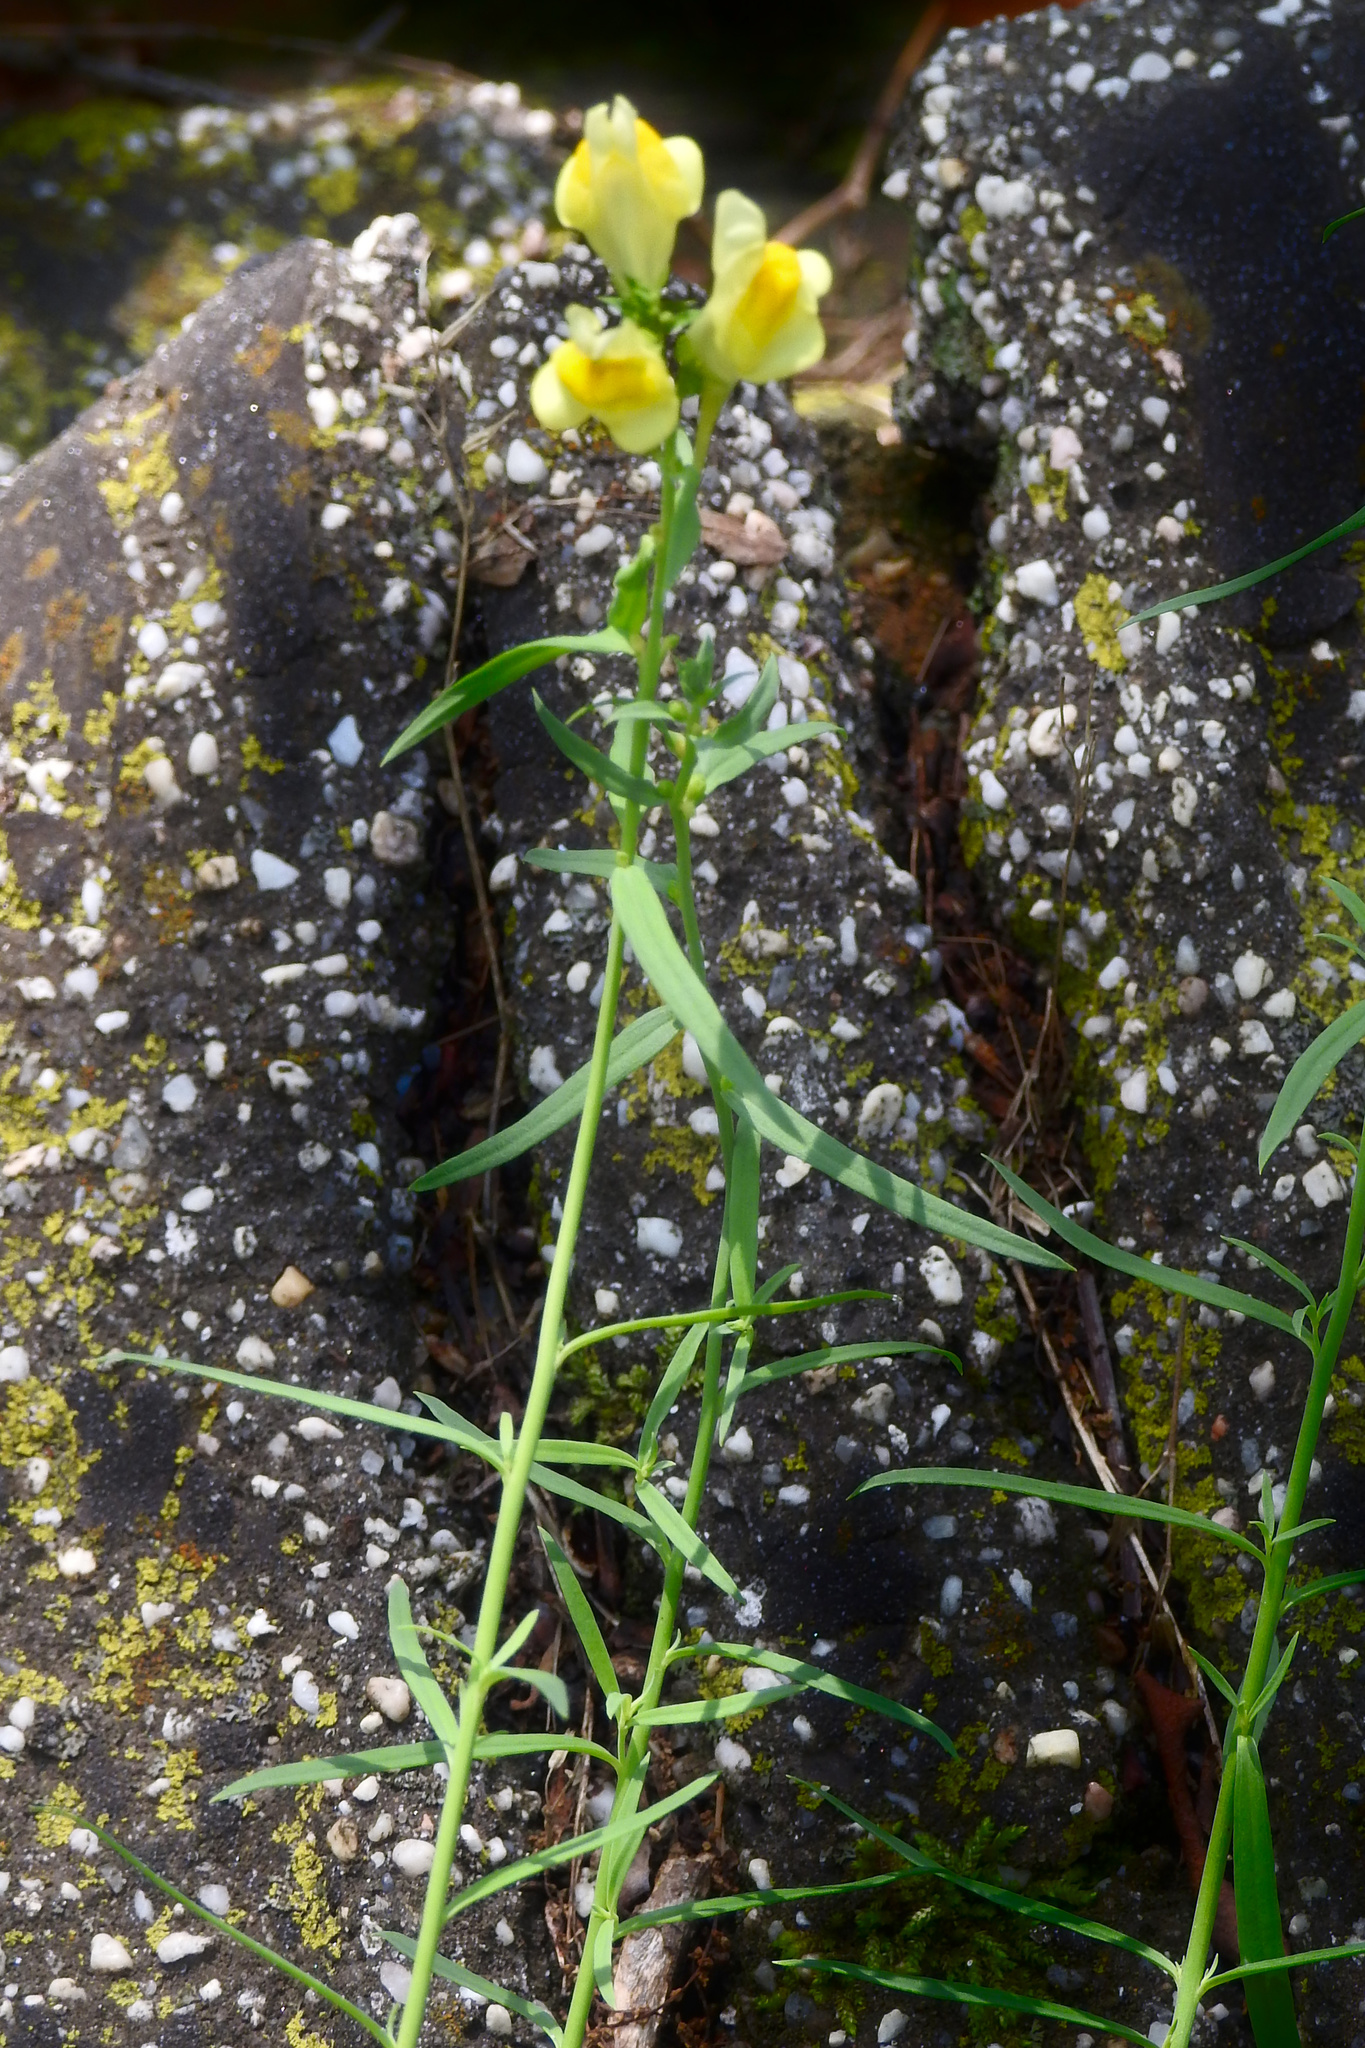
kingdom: Plantae
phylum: Tracheophyta
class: Magnoliopsida
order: Lamiales
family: Plantaginaceae
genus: Linaria
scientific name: Linaria vulgaris
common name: Butter and eggs
